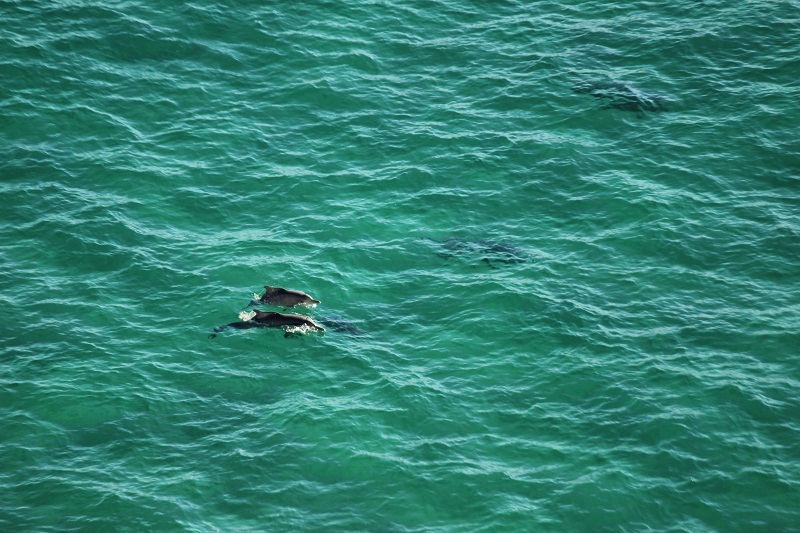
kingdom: Animalia
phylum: Chordata
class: Mammalia
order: Cetacea
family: Delphinidae
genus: Sousa
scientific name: Sousa plumbea
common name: Indian ocean humpback dolphin
